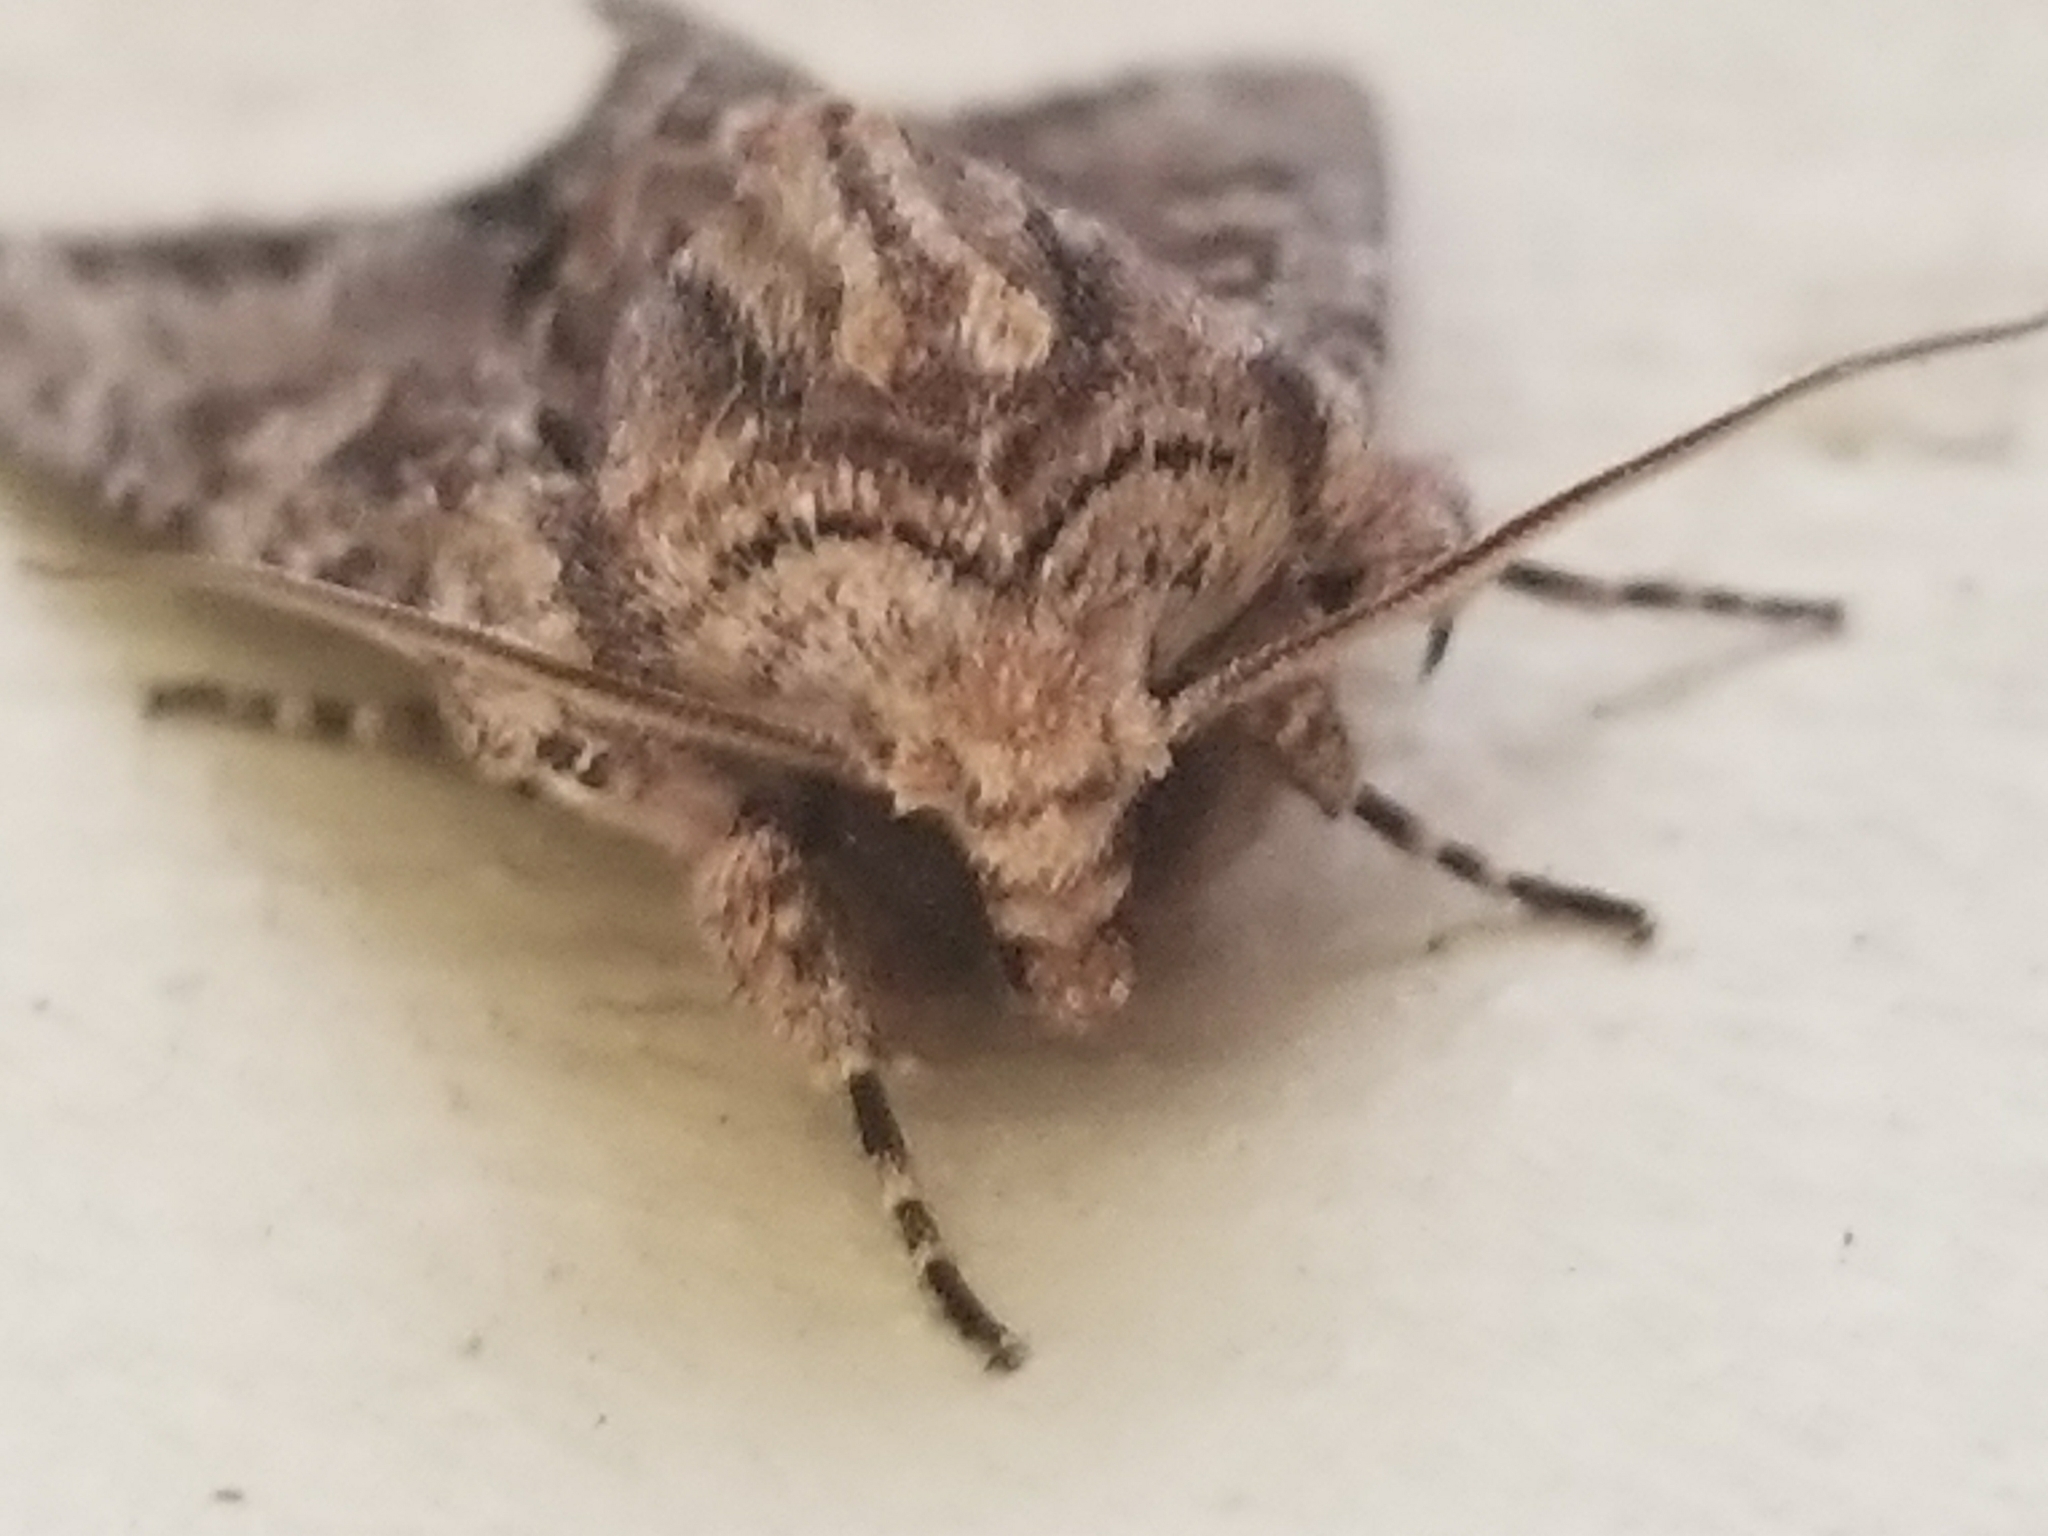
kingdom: Animalia
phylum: Arthropoda
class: Insecta
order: Lepidoptera
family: Noctuidae
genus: Achatia
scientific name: Achatia mucens
